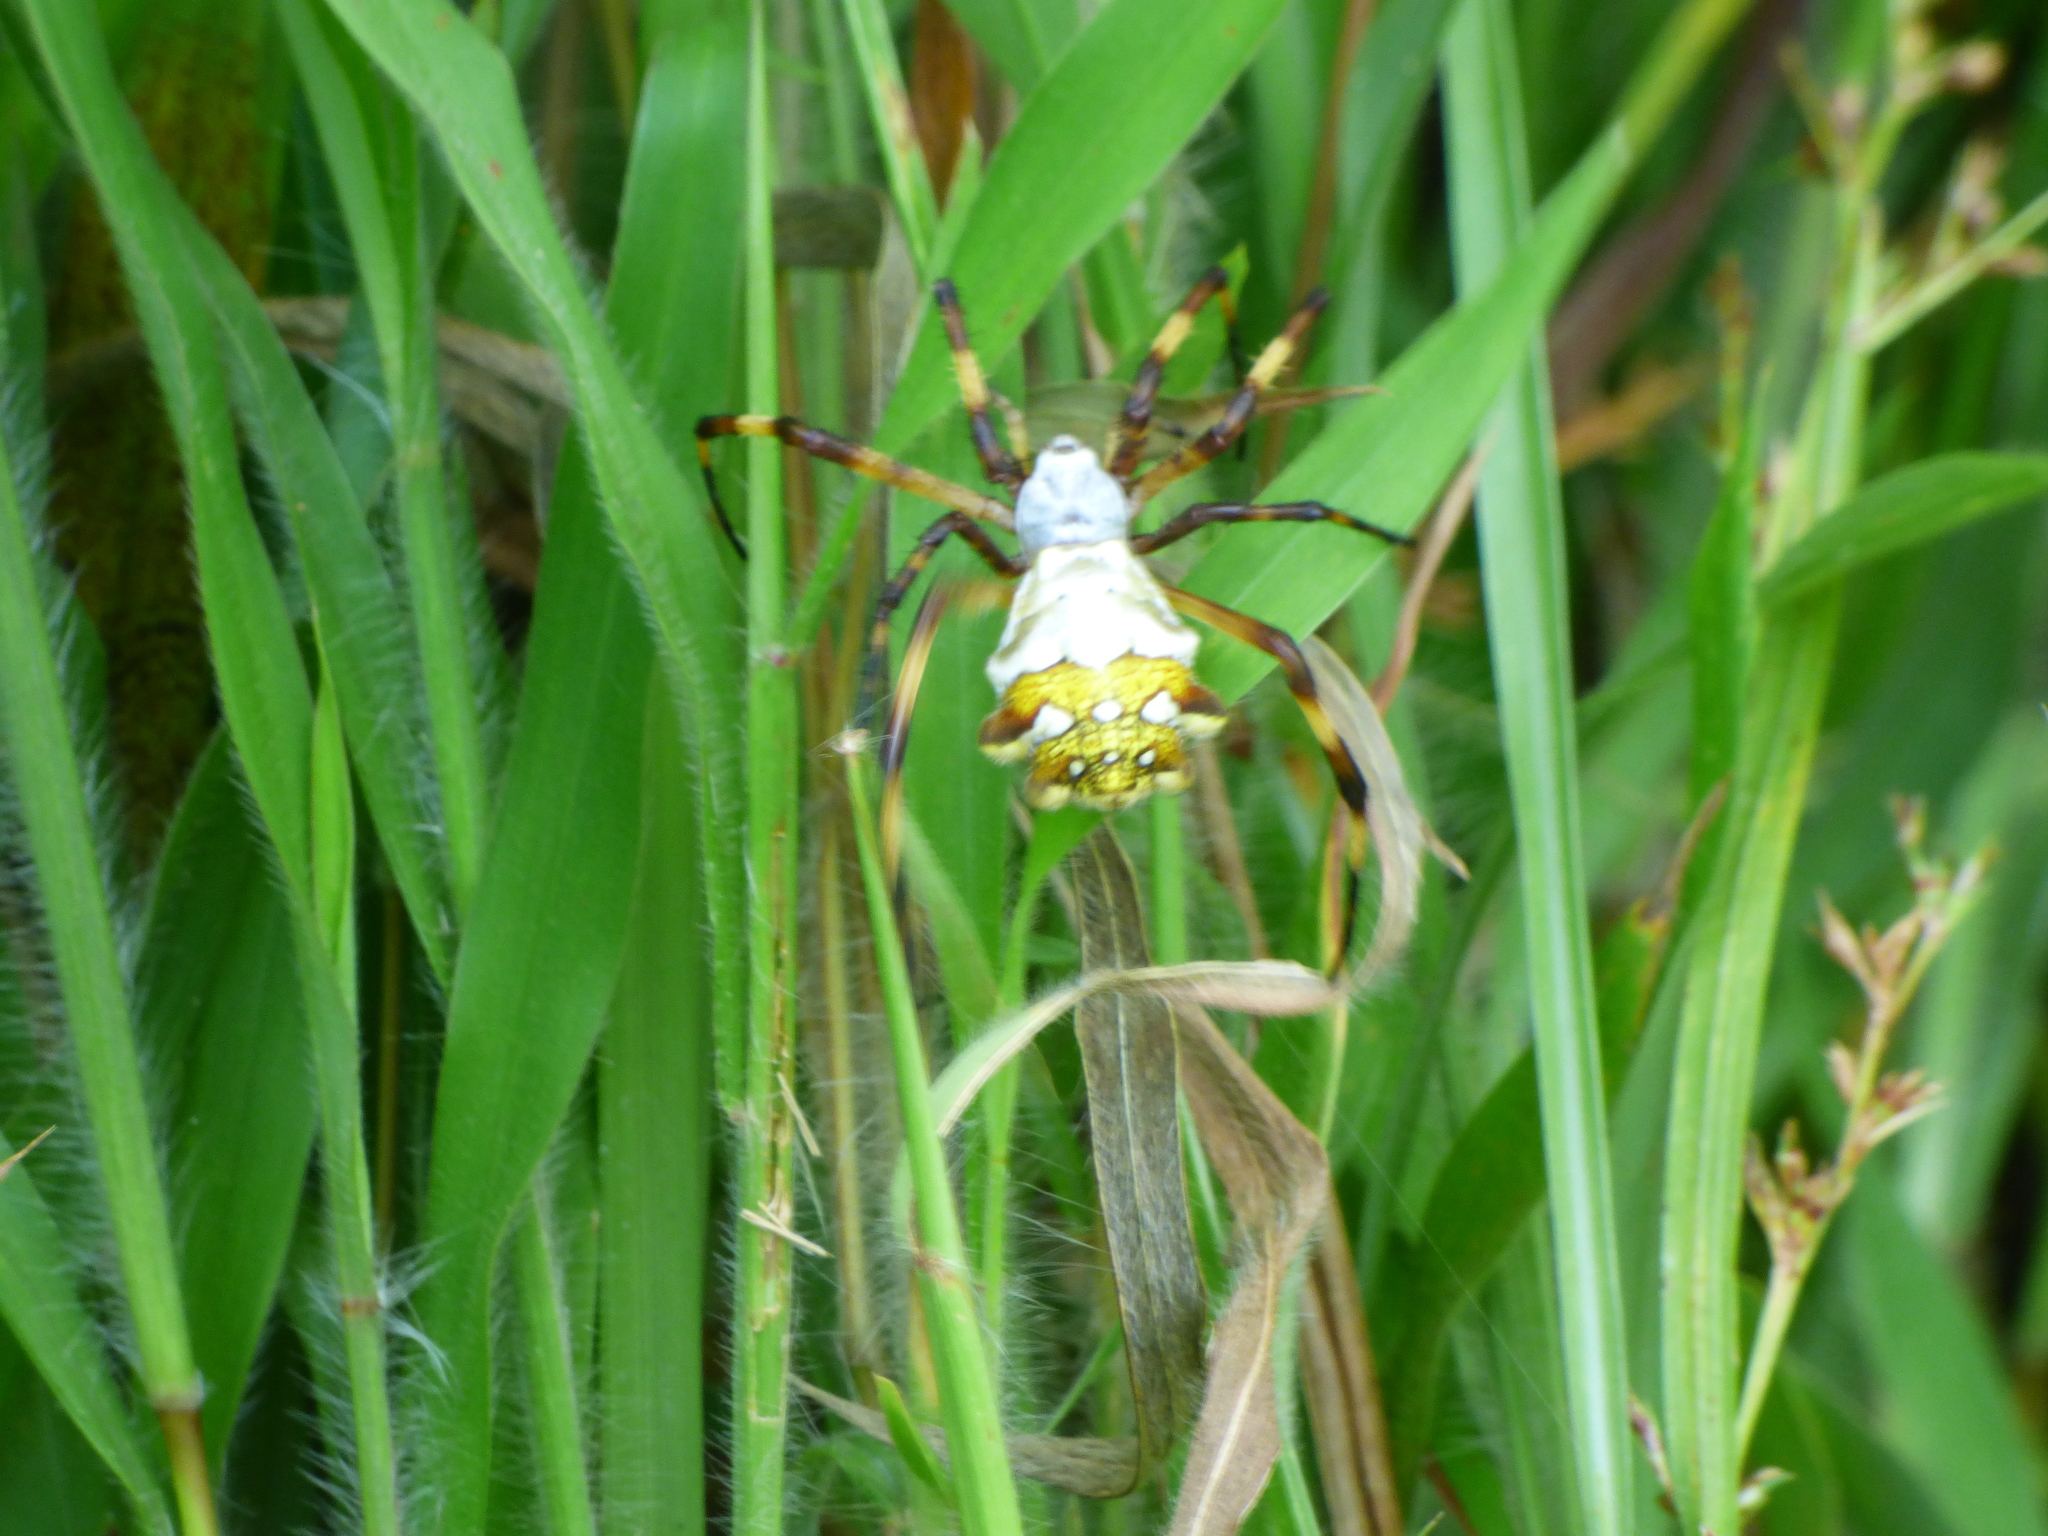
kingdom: Animalia
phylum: Arthropoda
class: Arachnida
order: Araneae
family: Araneidae
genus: Argiope
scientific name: Argiope argentata
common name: Orb weavers
